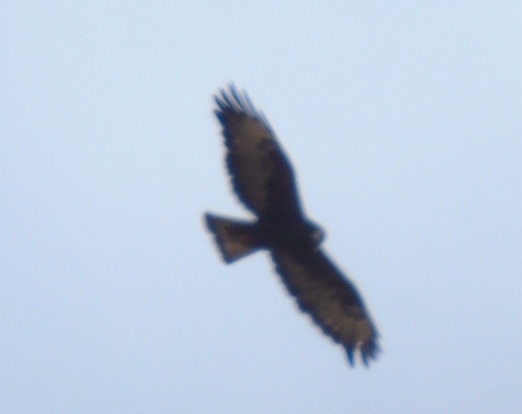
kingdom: Animalia
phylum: Chordata
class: Aves
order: Accipitriformes
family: Accipitridae
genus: Buteo
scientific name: Buteo brachyurus
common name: Short-tailed hawk
